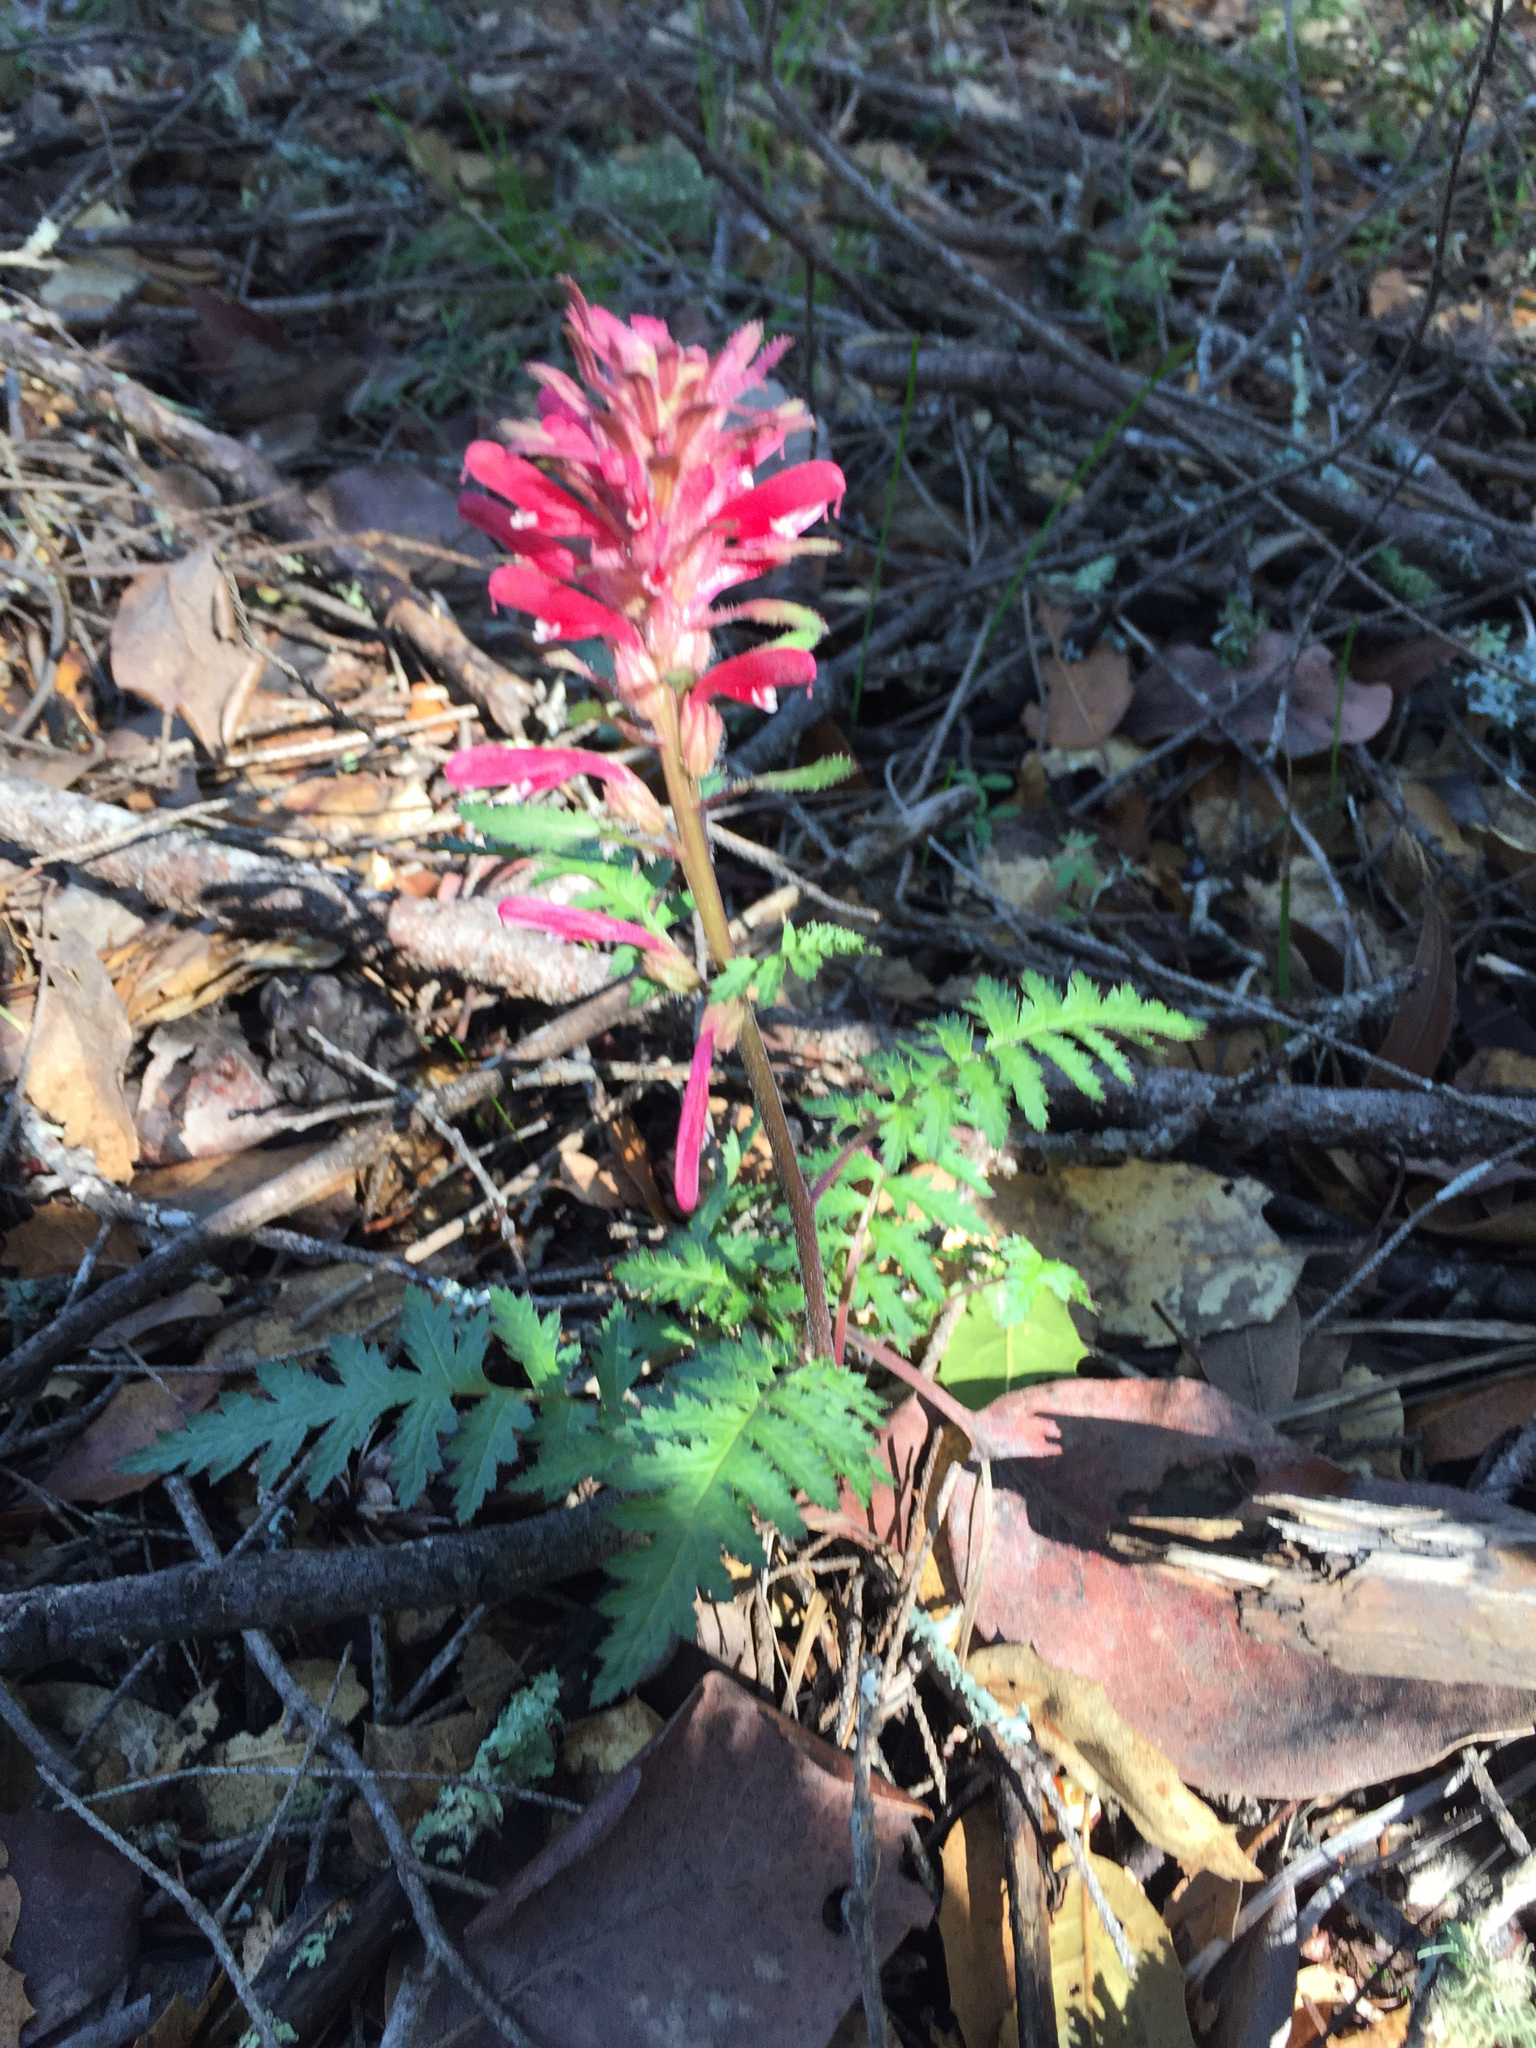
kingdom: Plantae
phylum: Tracheophyta
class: Magnoliopsida
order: Lamiales
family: Orobanchaceae
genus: Pedicularis
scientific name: Pedicularis densiflora
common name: Indian warrior
